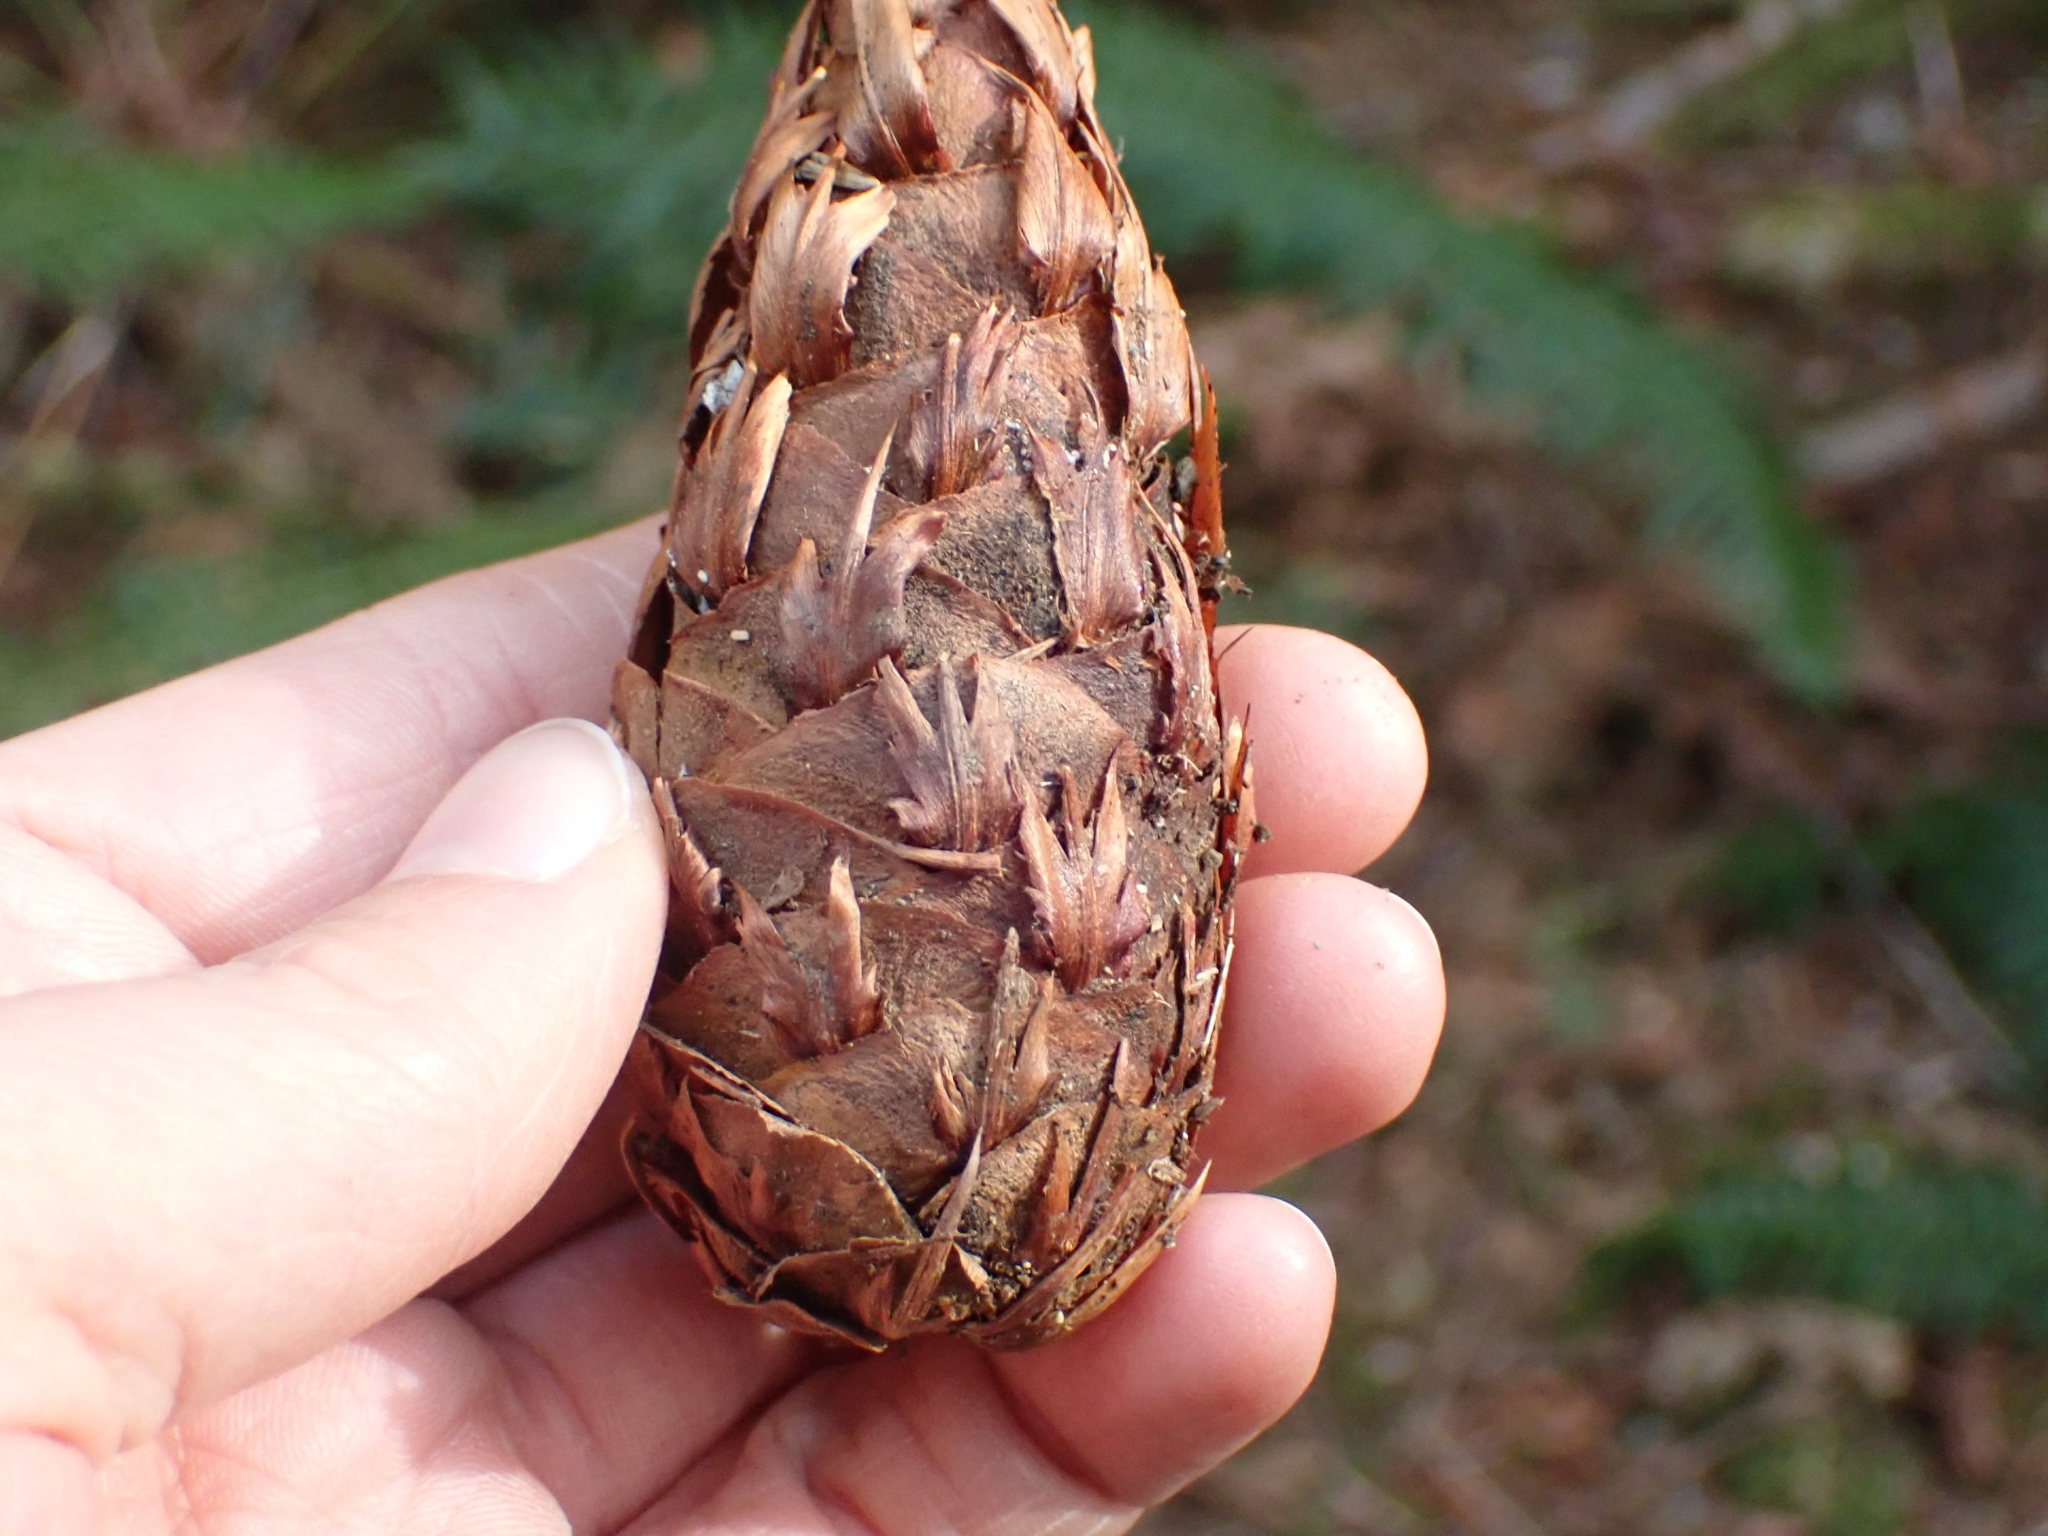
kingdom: Plantae
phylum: Tracheophyta
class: Pinopsida
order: Pinales
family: Pinaceae
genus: Pseudotsuga
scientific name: Pseudotsuga menziesii
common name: Douglas fir
